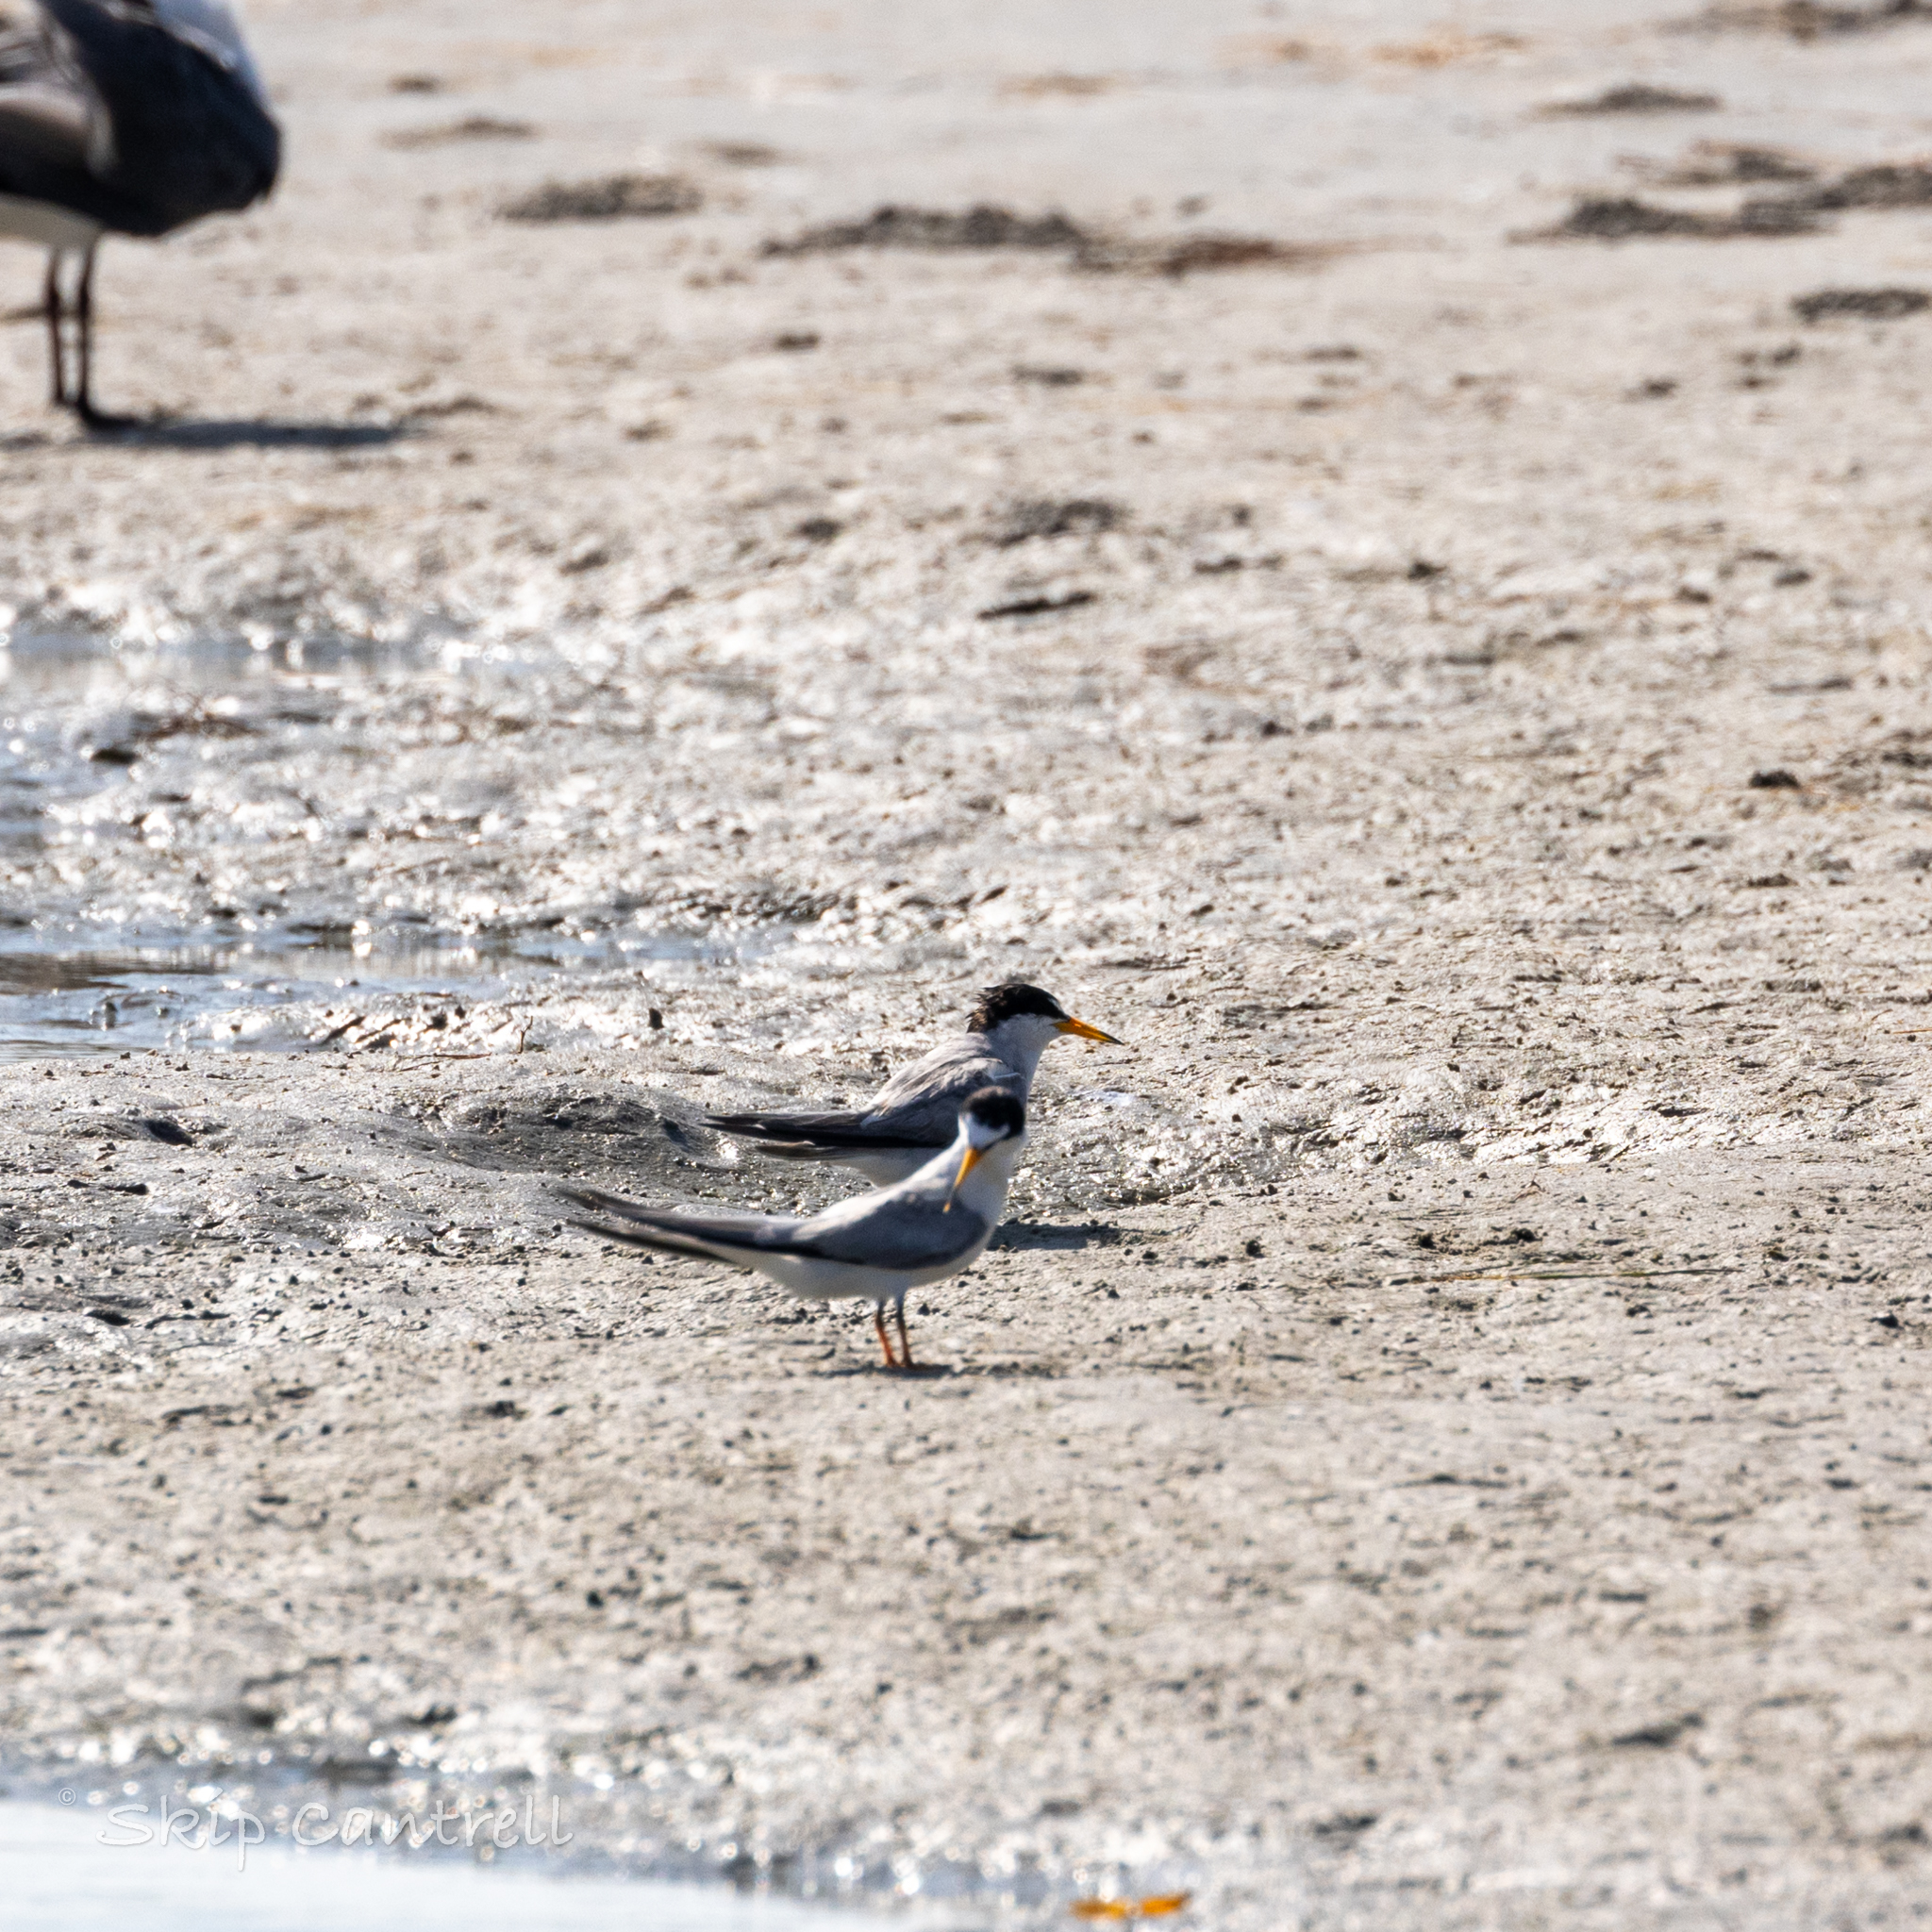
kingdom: Animalia
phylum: Chordata
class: Aves
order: Charadriiformes
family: Laridae
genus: Sternula
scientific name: Sternula antillarum
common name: Least tern
